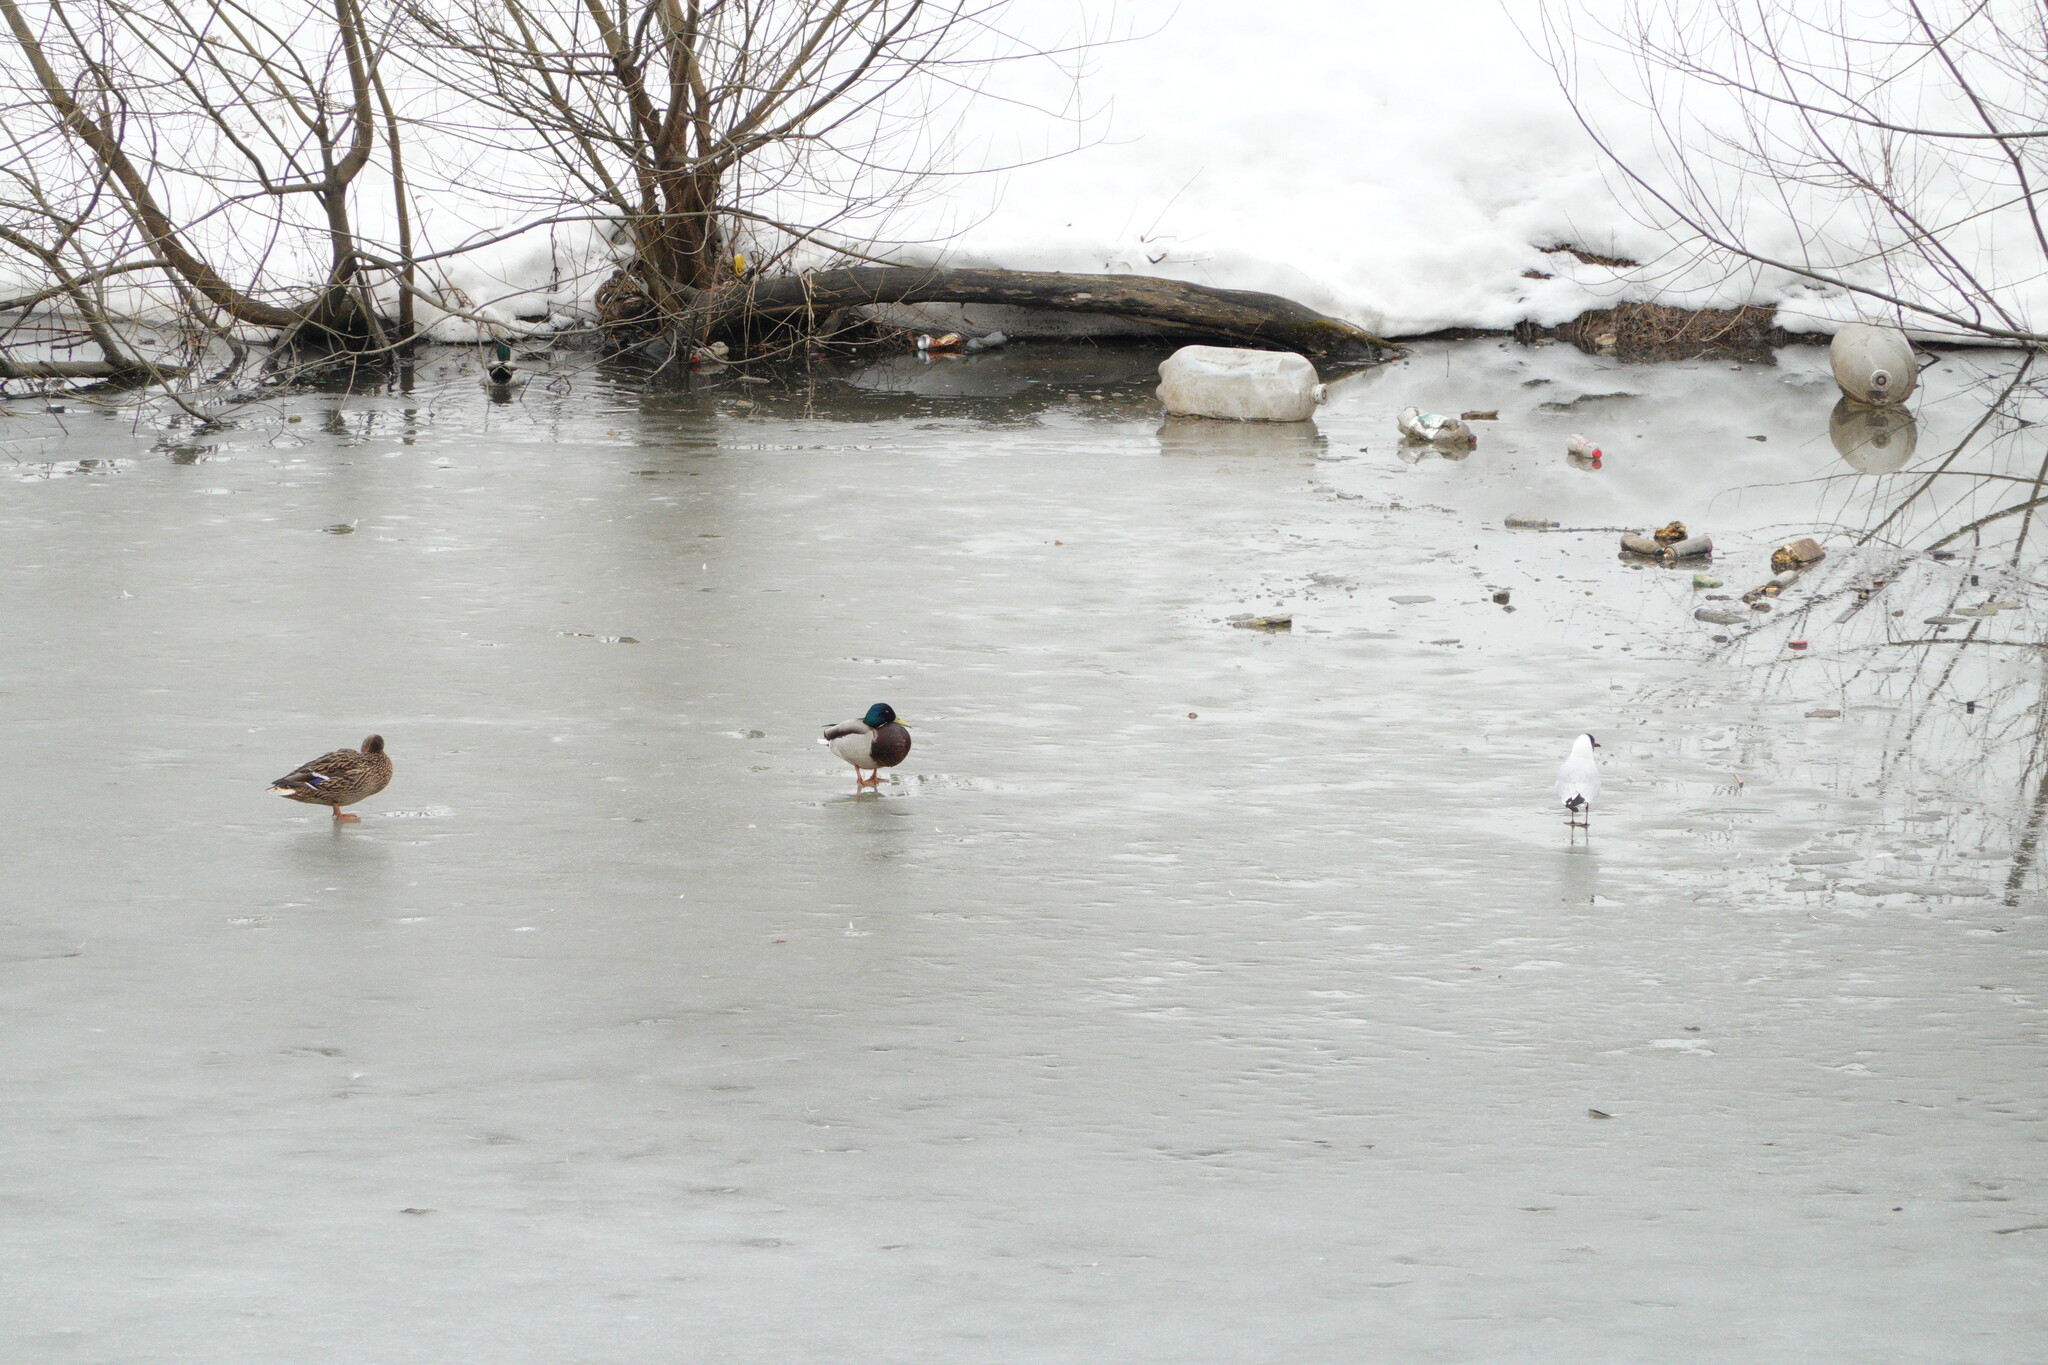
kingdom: Animalia
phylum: Chordata
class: Aves
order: Charadriiformes
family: Laridae
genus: Chroicocephalus
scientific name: Chroicocephalus ridibundus
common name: Black-headed gull
